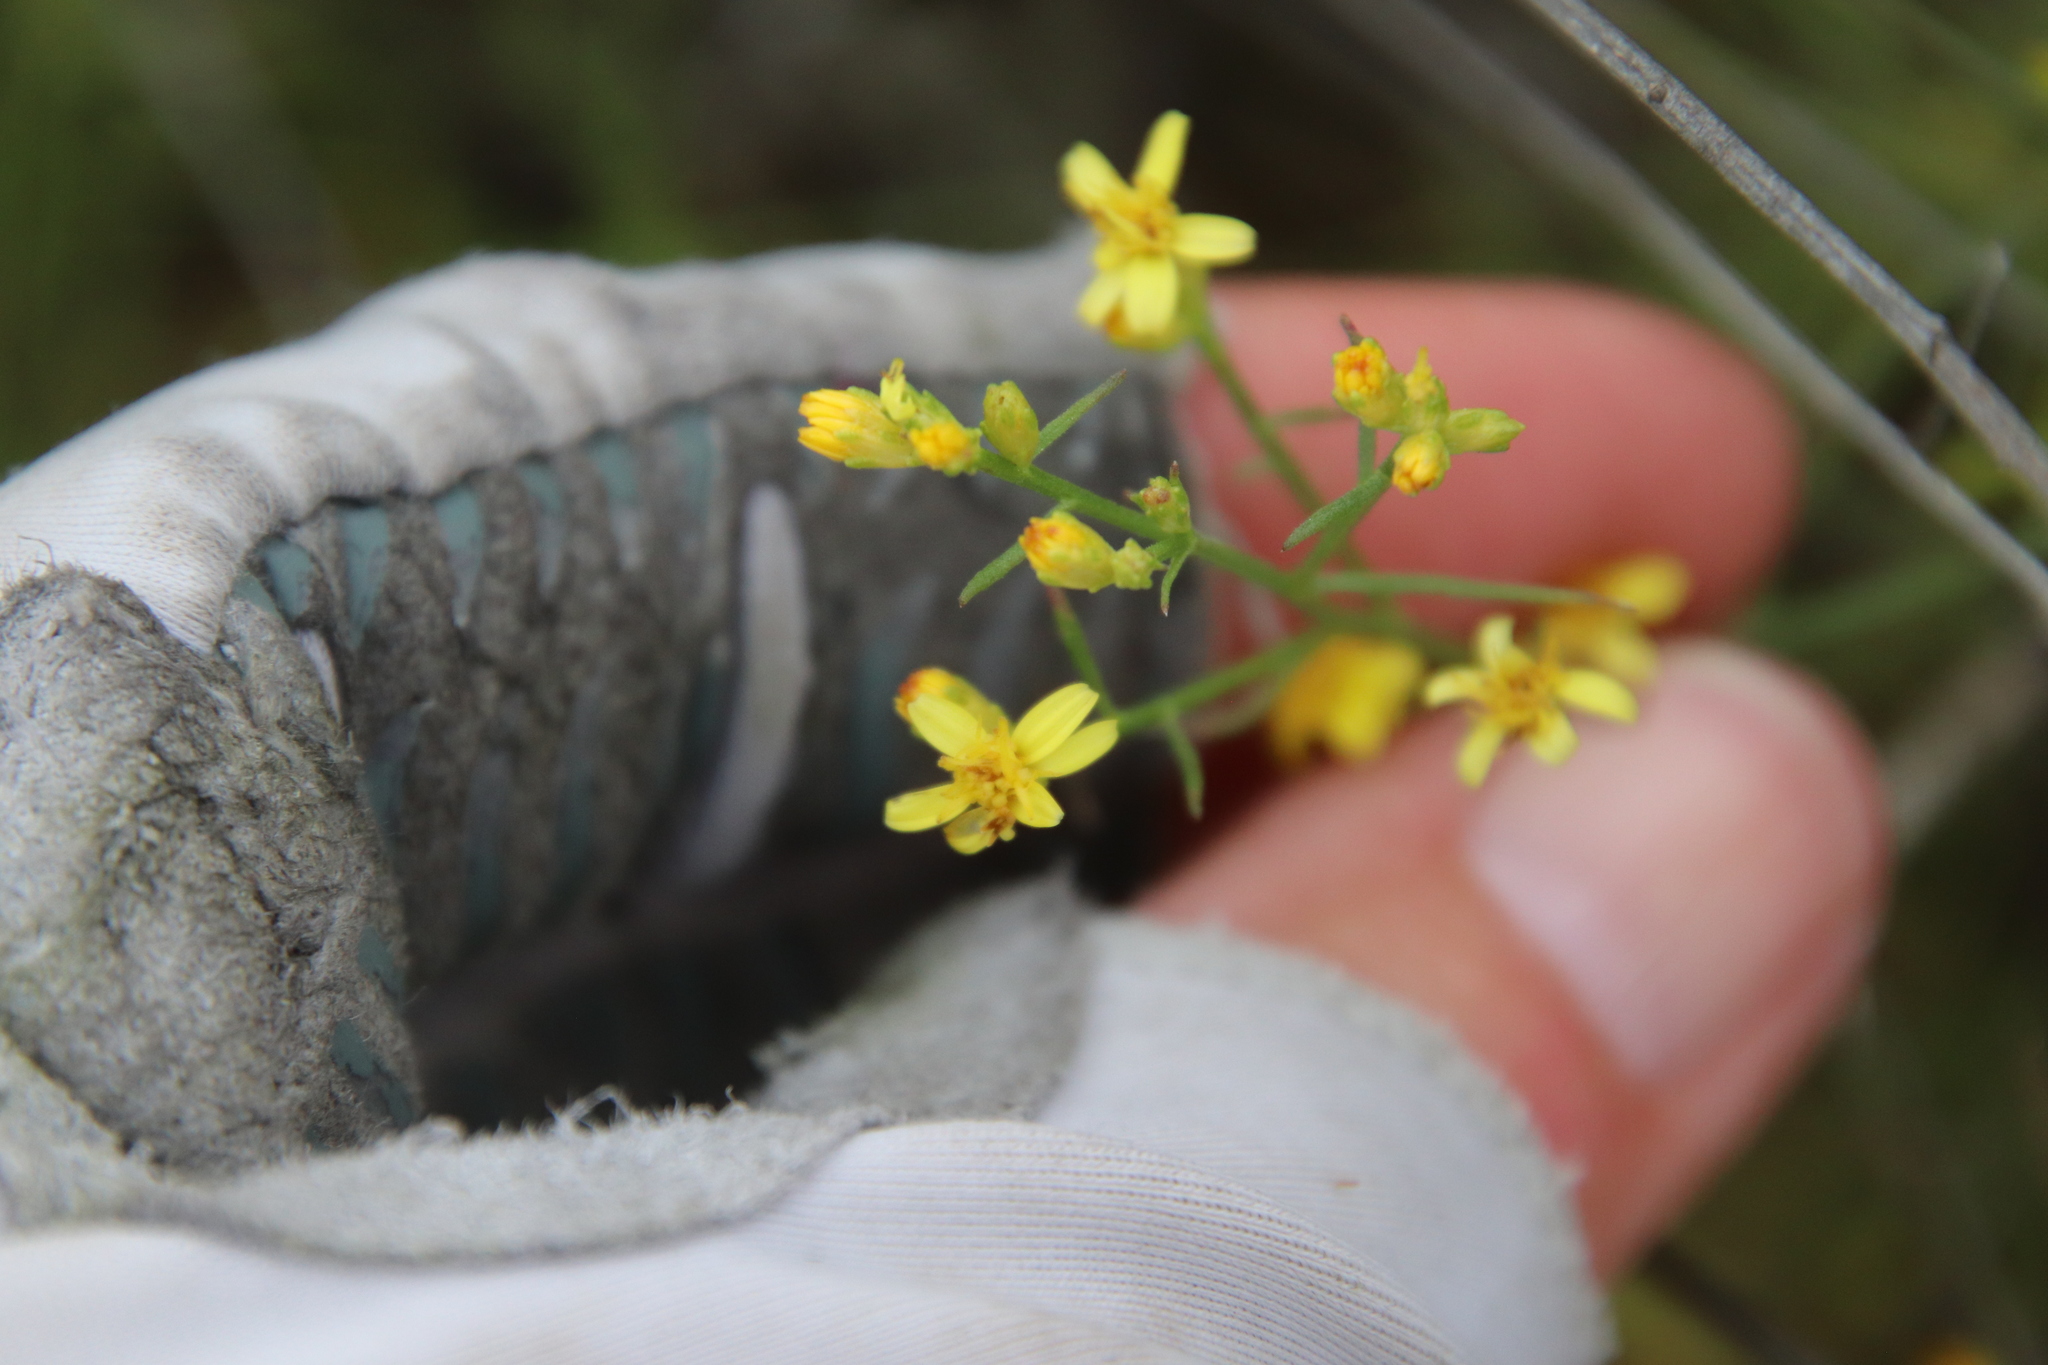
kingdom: Plantae
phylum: Tracheophyta
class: Magnoliopsida
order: Asterales
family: Asteraceae
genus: Gutierrezia
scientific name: Gutierrezia sarothrae
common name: Broom snakeweed
